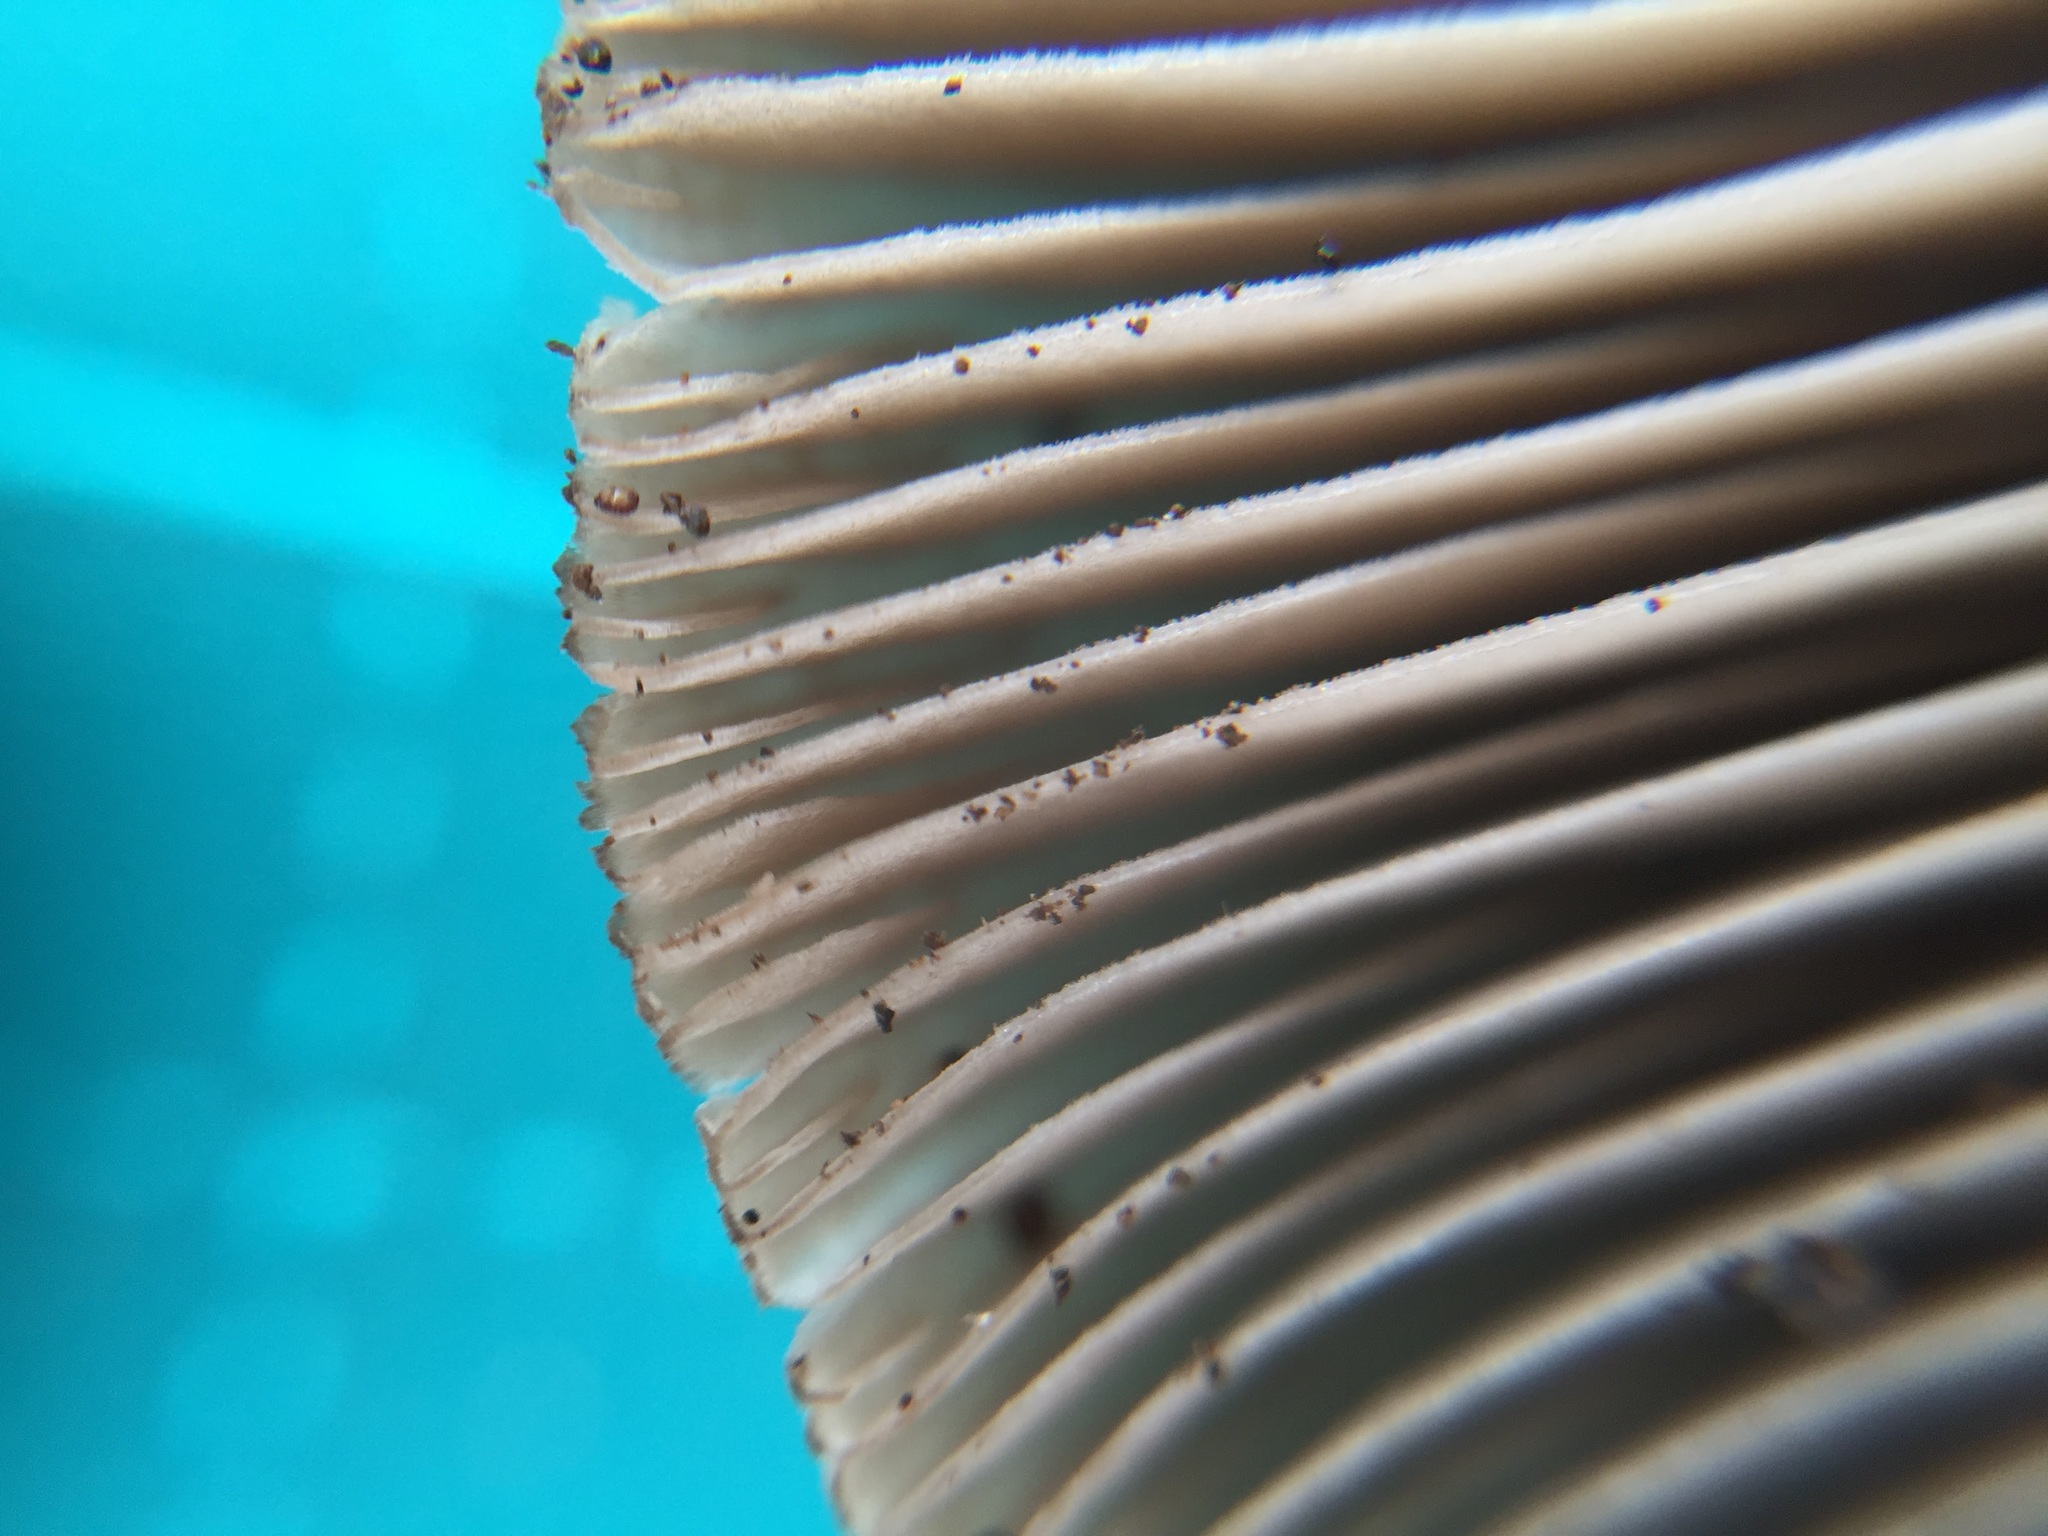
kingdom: Fungi
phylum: Basidiomycota
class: Agaricomycetes
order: Agaricales
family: Psathyrellaceae
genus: Coprinopsis
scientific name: Coprinopsis cineraria
